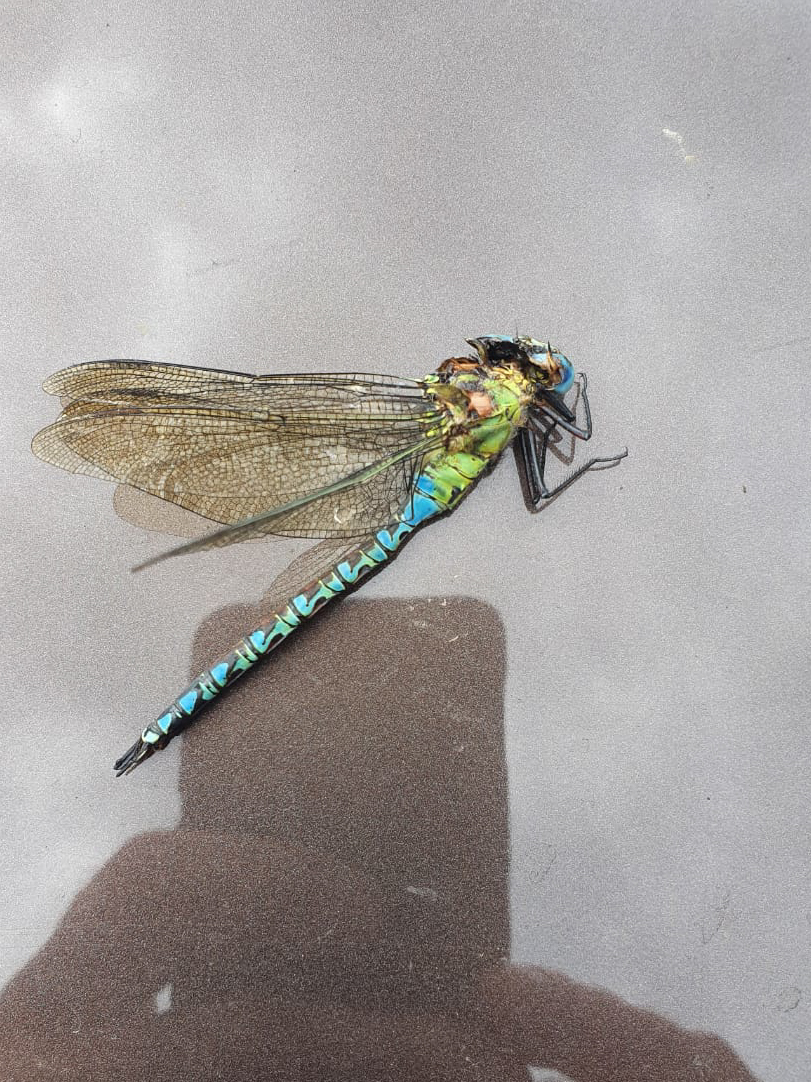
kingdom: Animalia
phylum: Arthropoda
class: Insecta
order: Odonata
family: Aeshnidae
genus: Aeshna
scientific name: Aeshna viridis
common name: Green hawker
